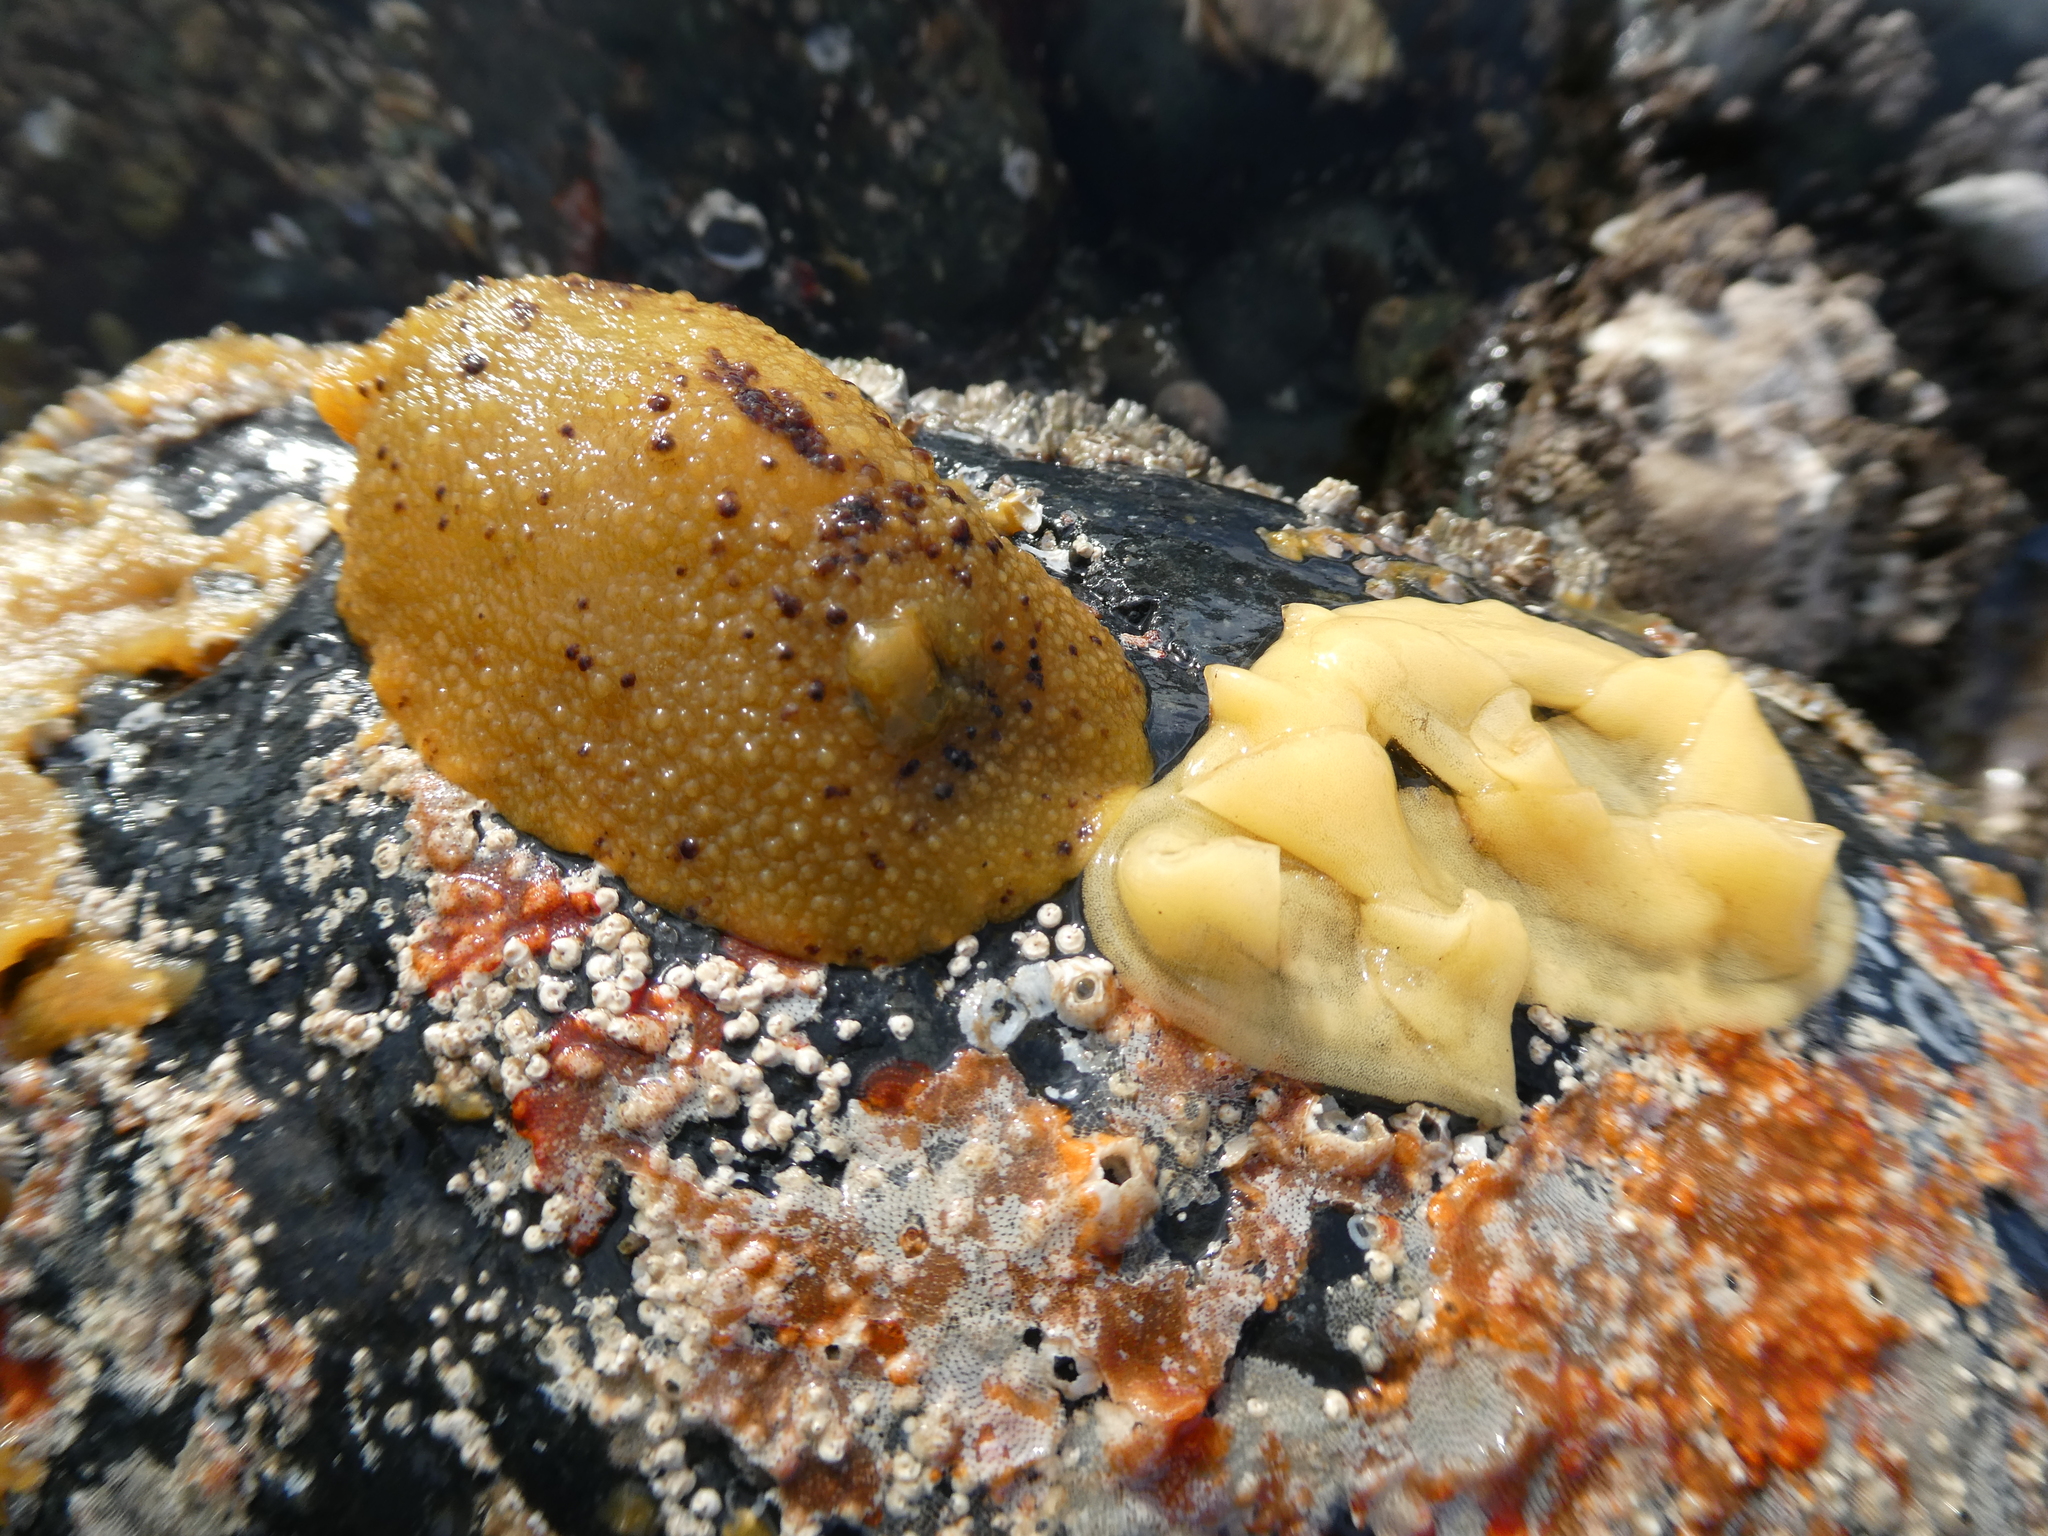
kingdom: Animalia
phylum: Mollusca
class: Gastropoda
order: Nudibranchia
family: Dorididae
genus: Doris
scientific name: Doris montereyensis
